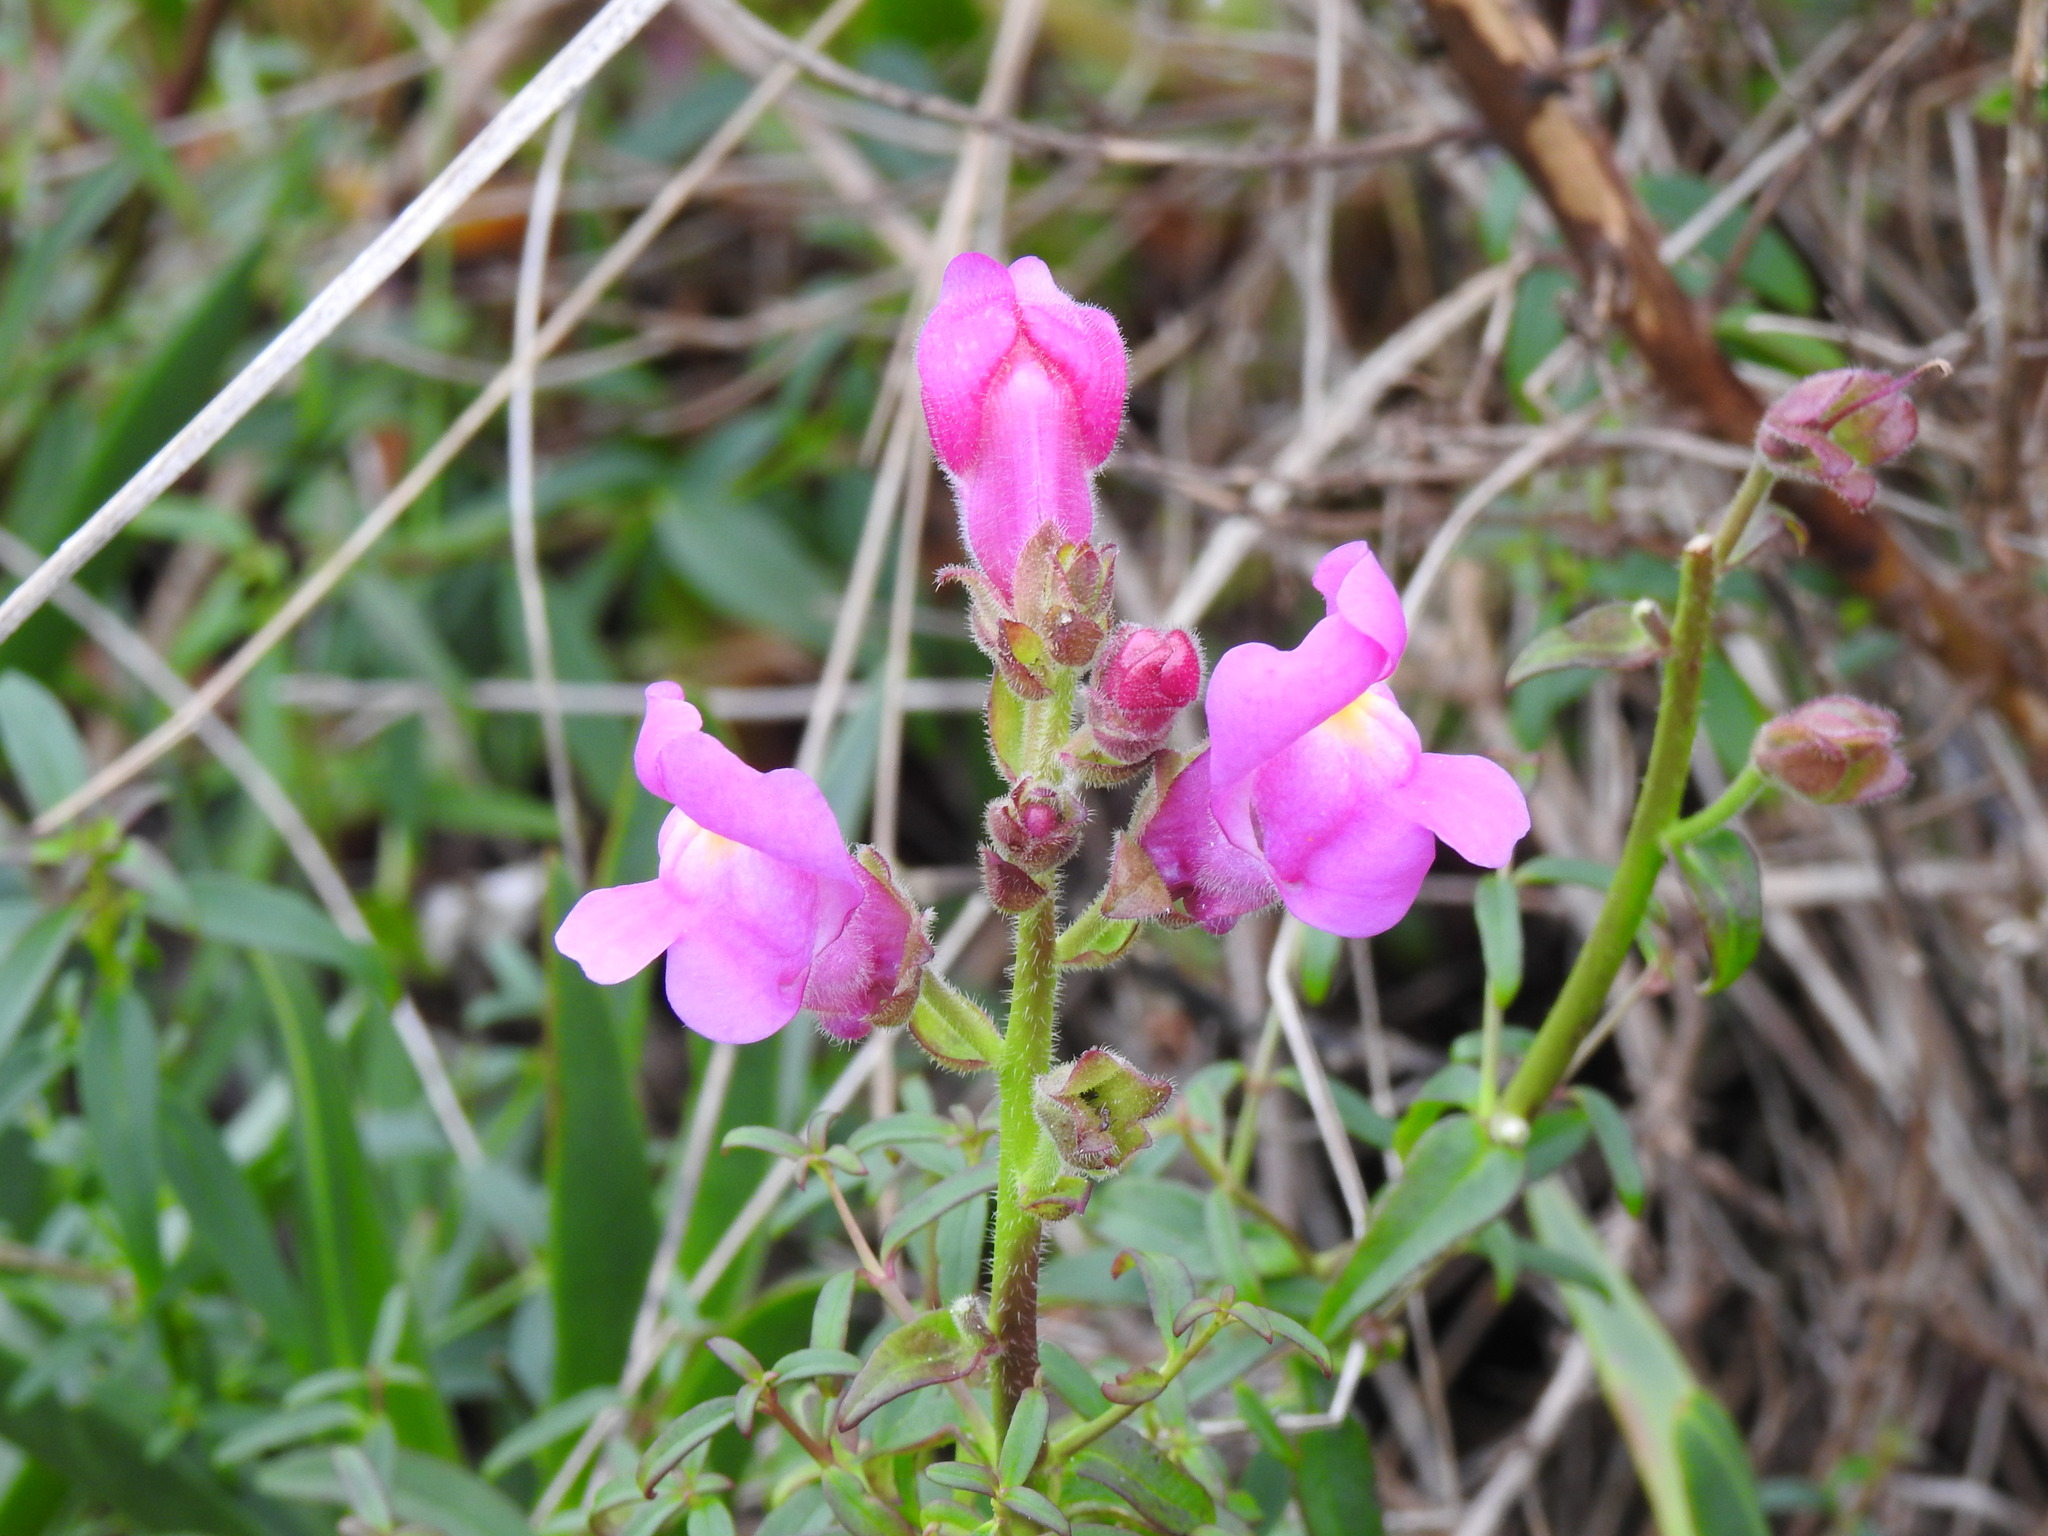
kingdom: Plantae
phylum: Tracheophyta
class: Magnoliopsida
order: Lamiales
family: Plantaginaceae
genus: Antirrhinum
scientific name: Antirrhinum cirrhigerum
